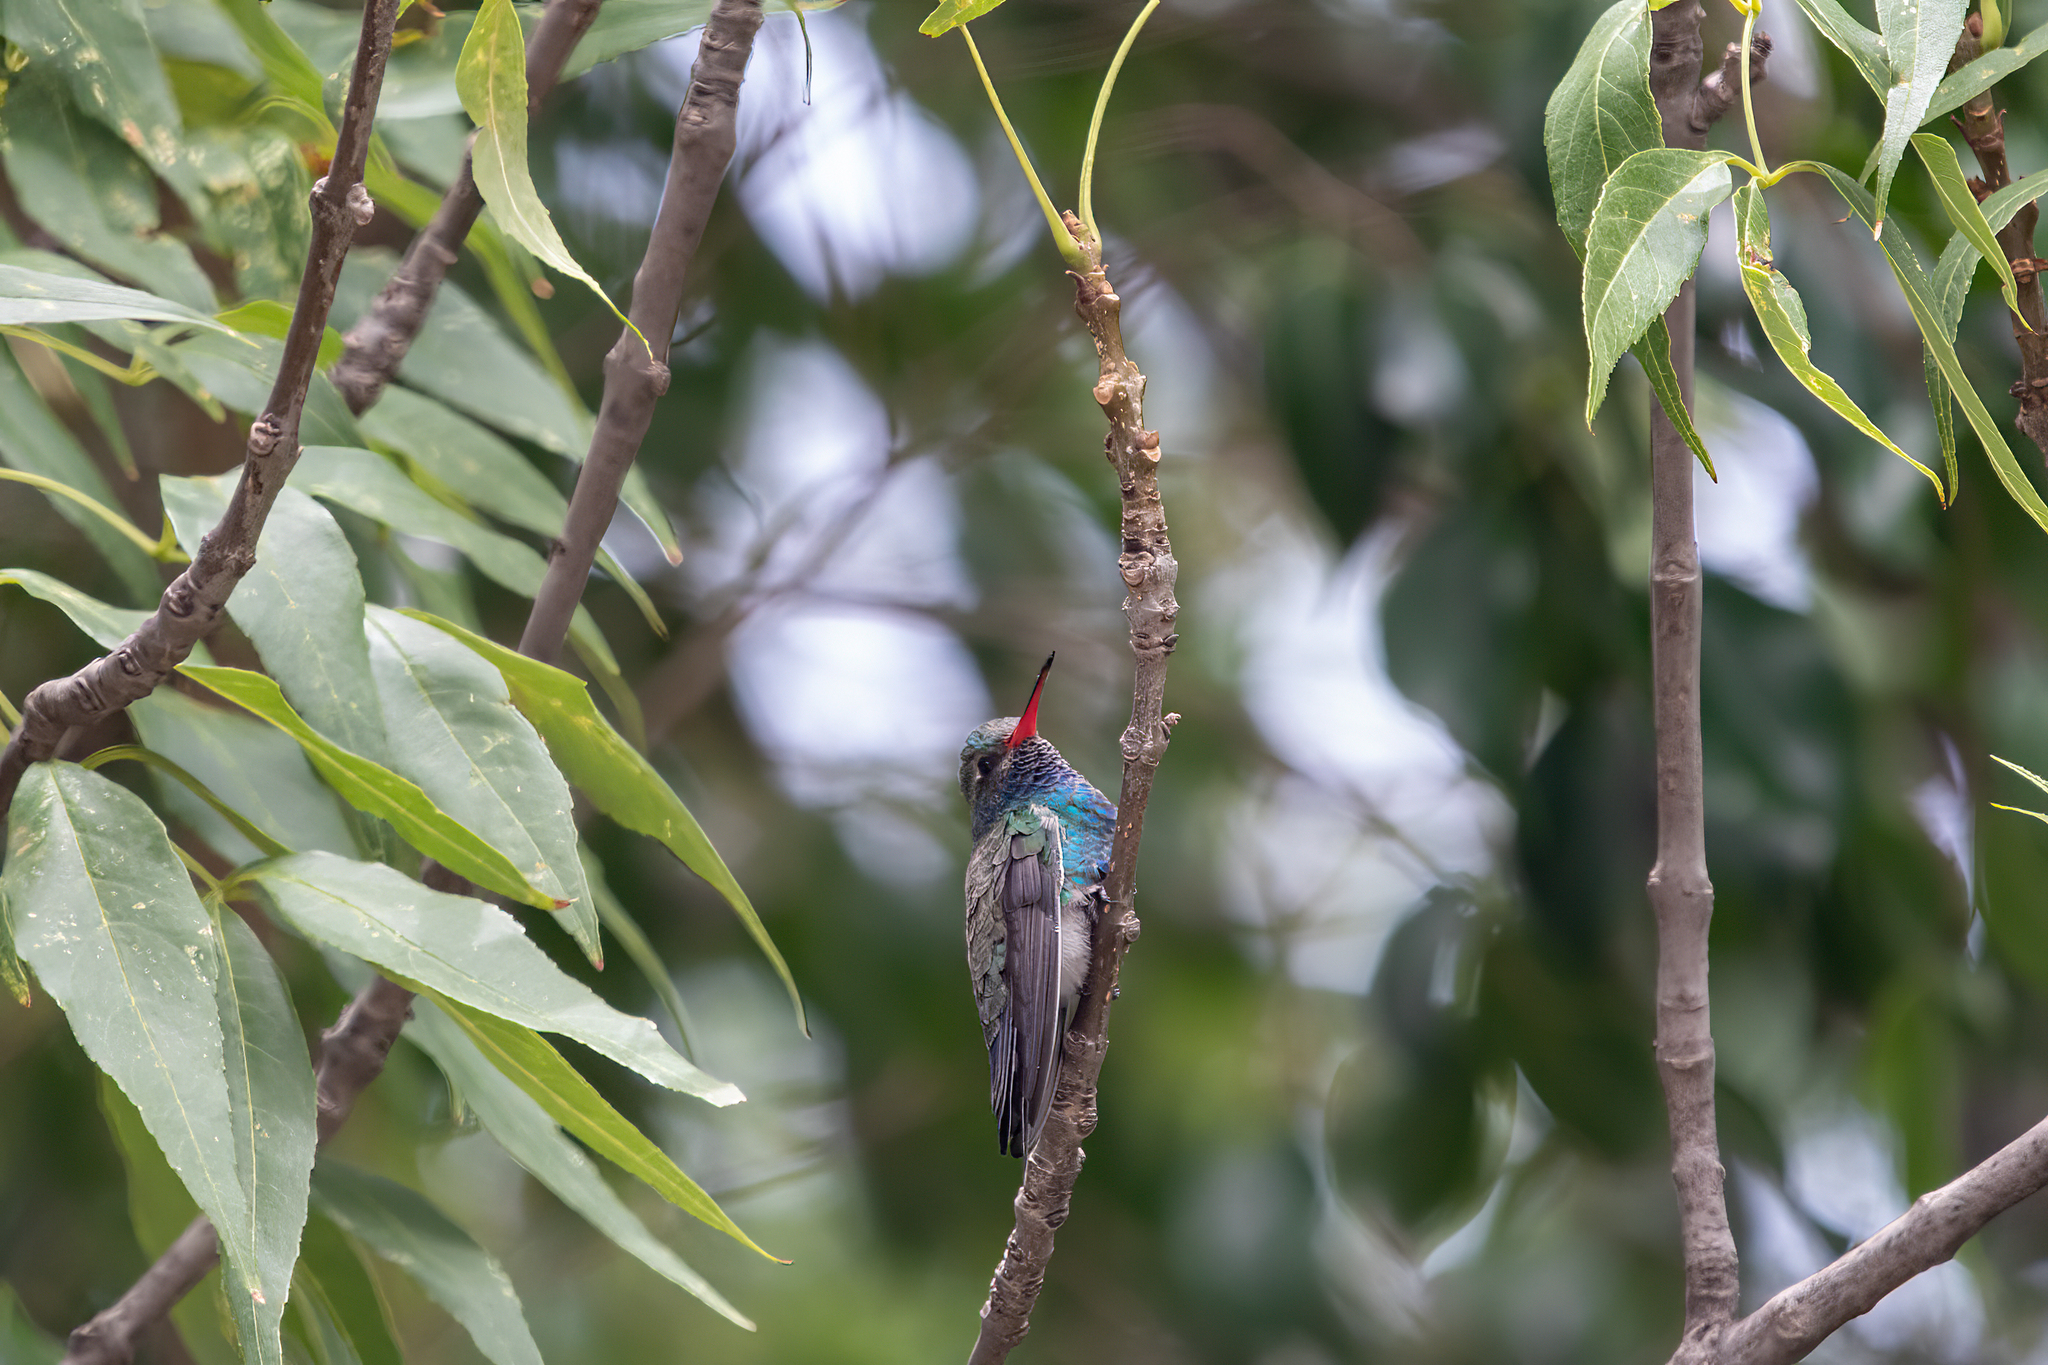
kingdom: Animalia
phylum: Chordata
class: Aves
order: Apodiformes
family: Trochilidae
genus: Cynanthus
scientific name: Cynanthus latirostris
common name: Broad-billed hummingbird
